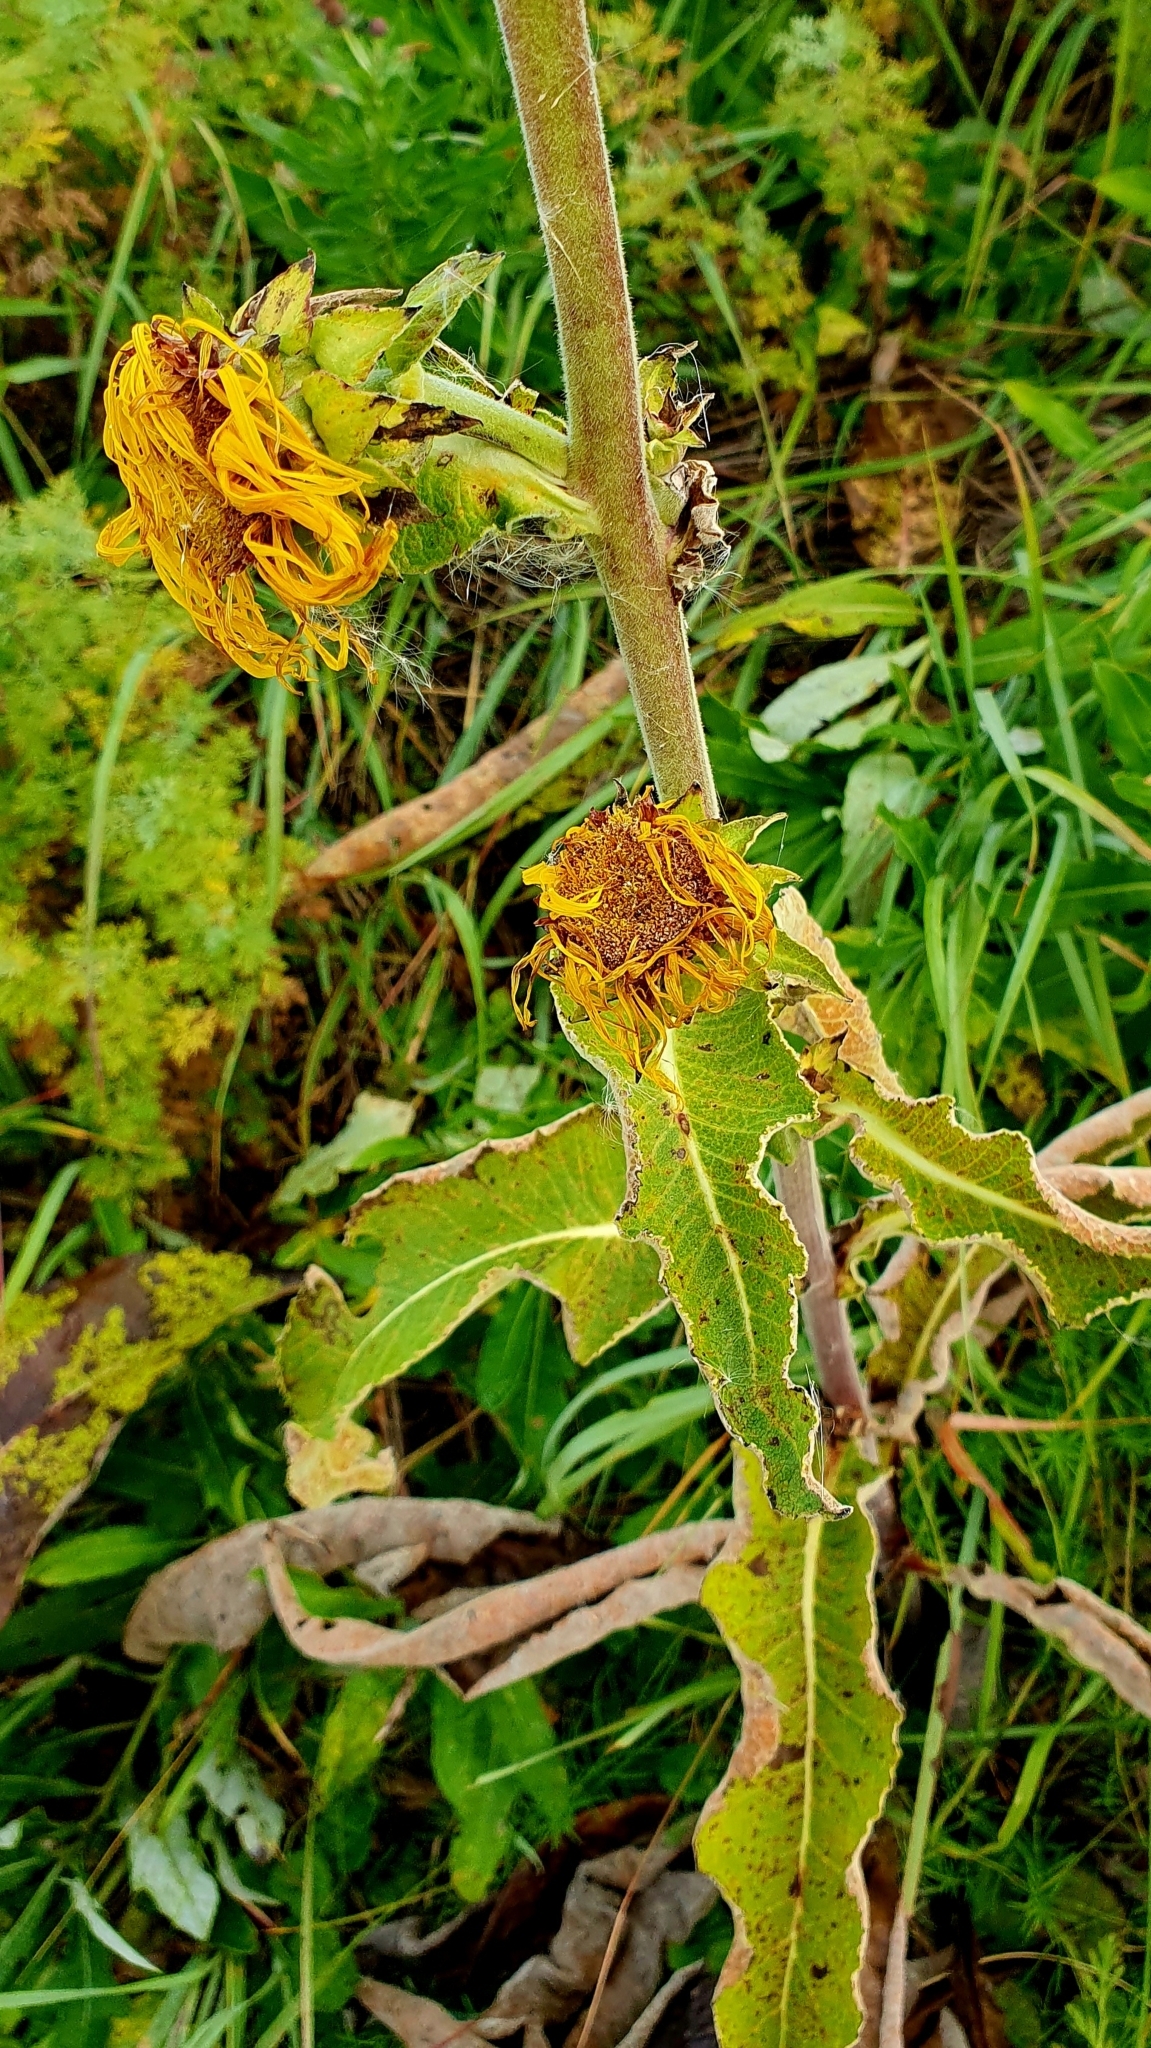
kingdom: Plantae
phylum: Tracheophyta
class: Magnoliopsida
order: Asterales
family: Asteraceae
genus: Inula
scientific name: Inula helenium
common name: Elecampane
